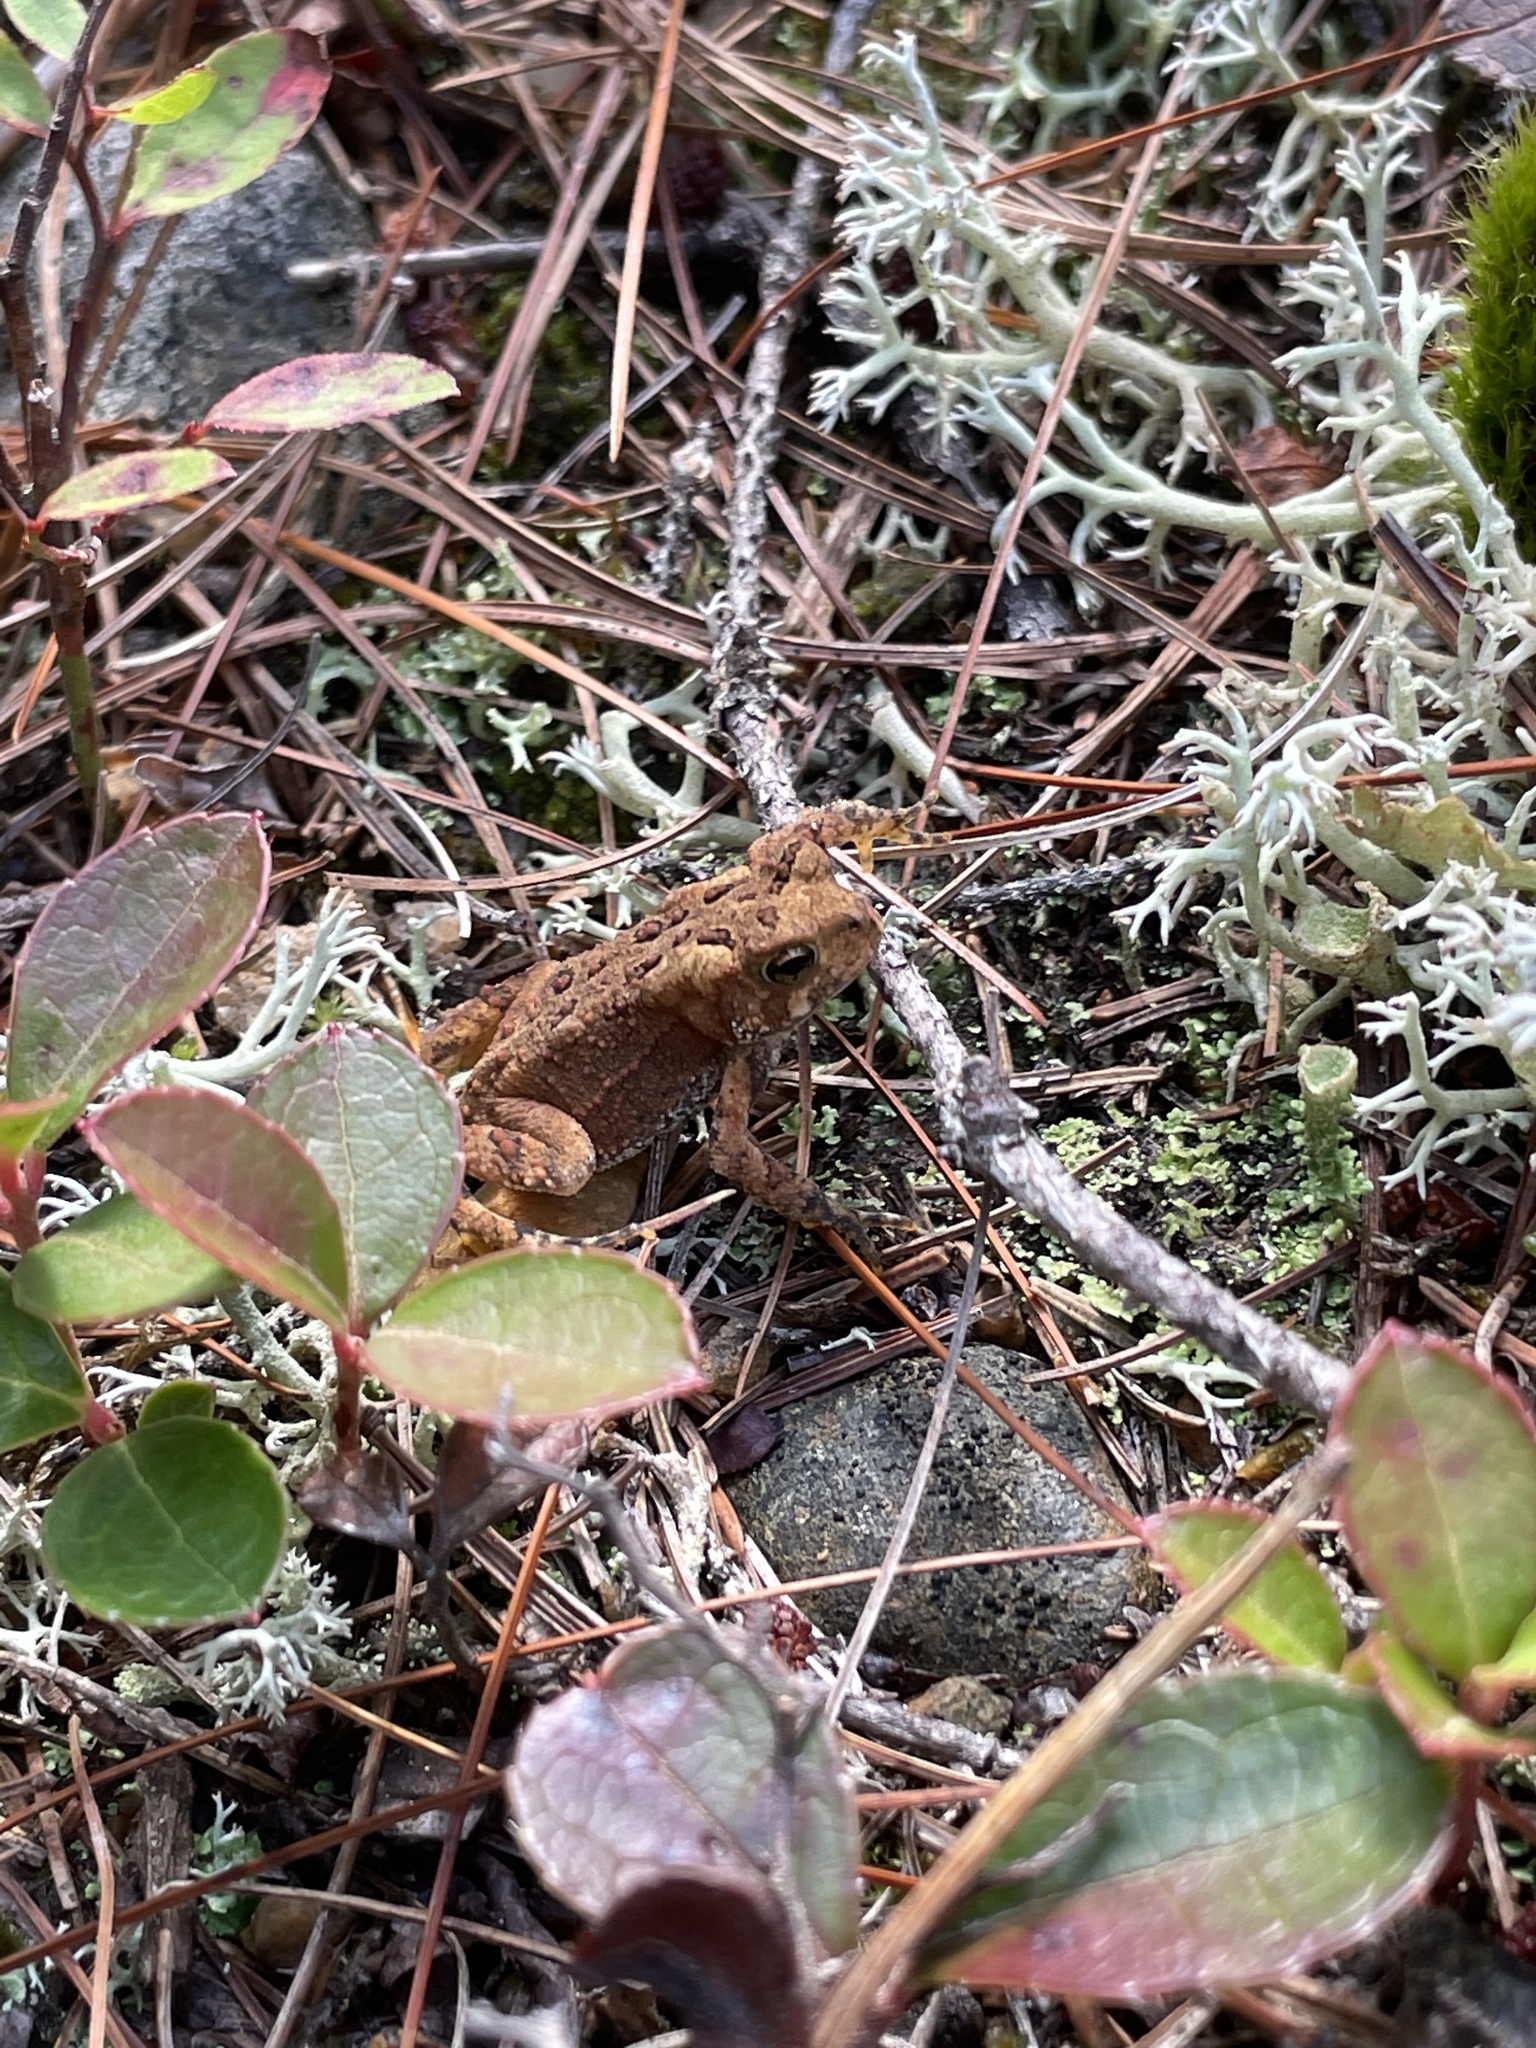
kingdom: Animalia
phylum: Chordata
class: Amphibia
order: Anura
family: Bufonidae
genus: Anaxyrus
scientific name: Anaxyrus americanus
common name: American toad
